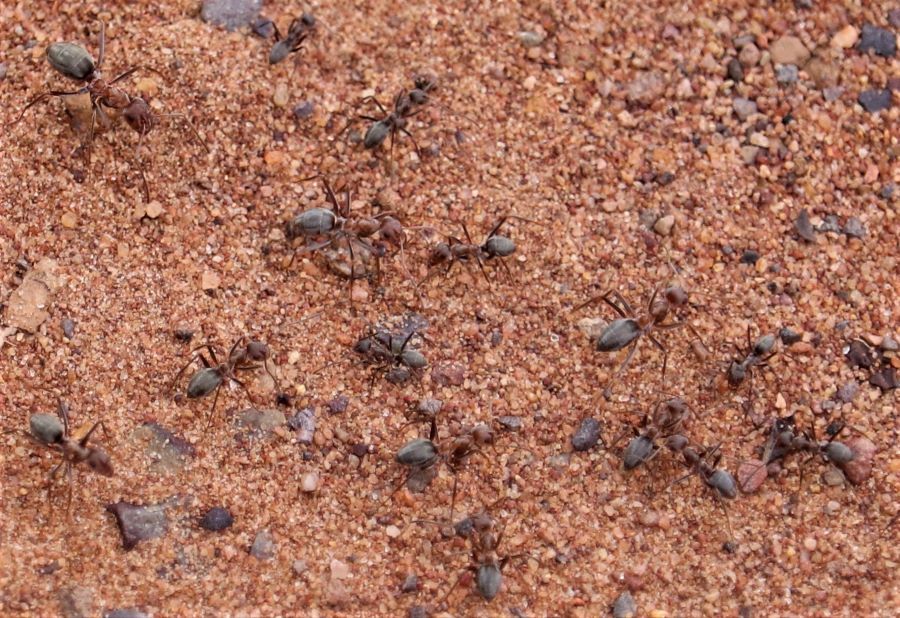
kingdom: Animalia
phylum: Arthropoda
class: Insecta
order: Hymenoptera
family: Formicidae
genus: Anoplolepis
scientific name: Anoplolepis custodiens
